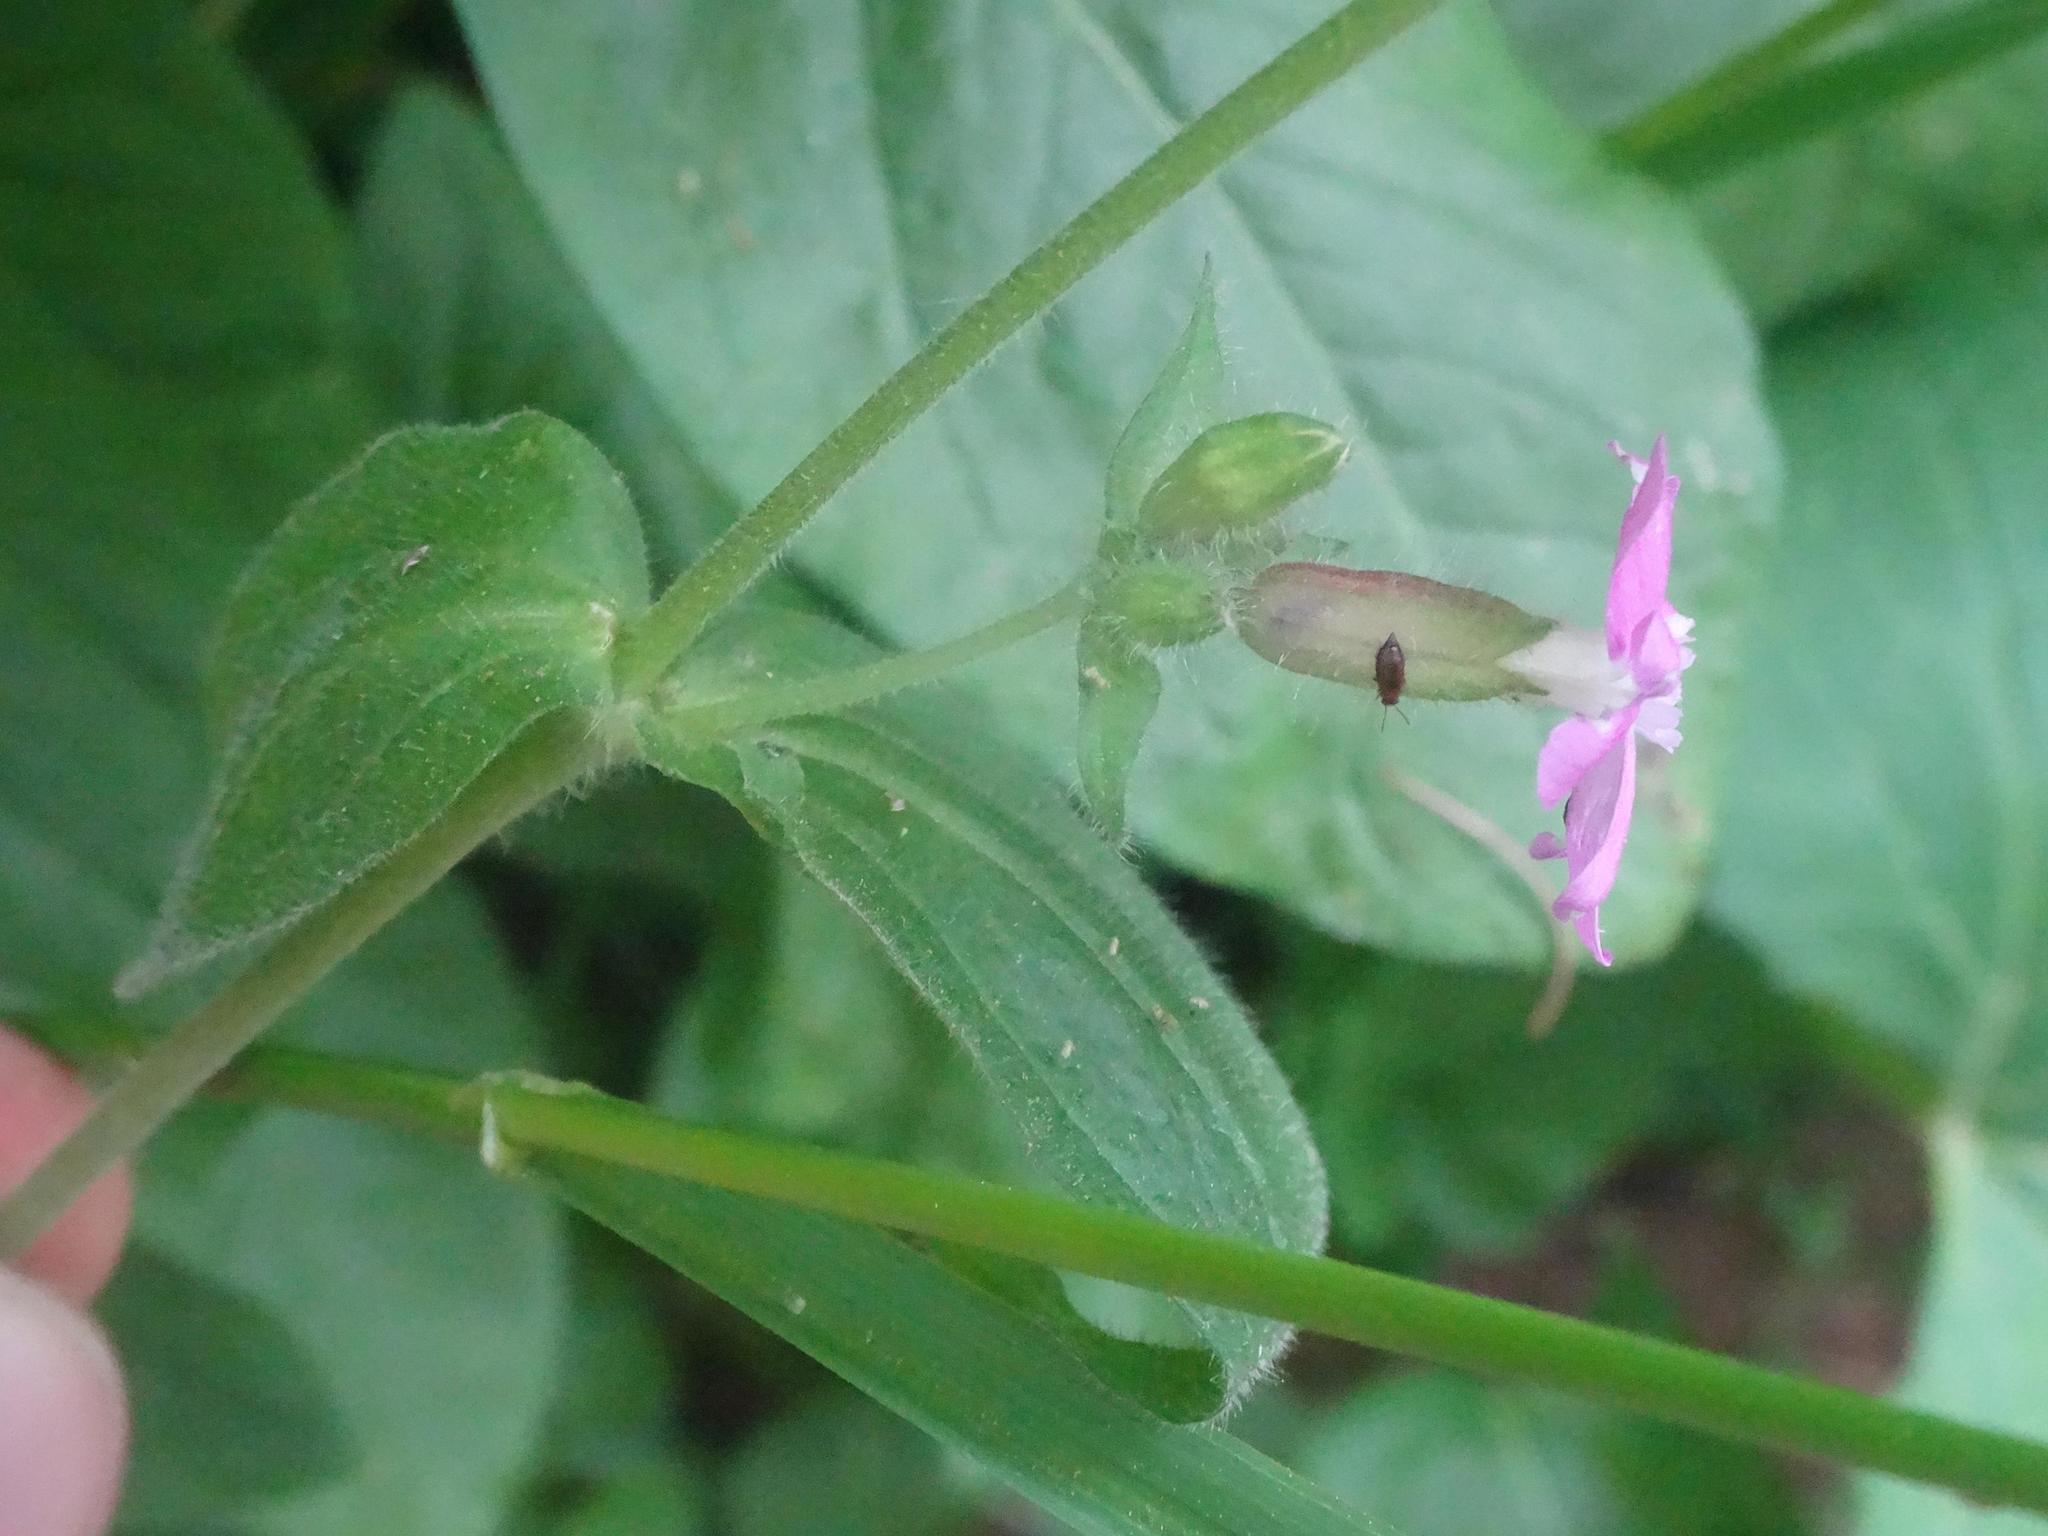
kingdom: Plantae
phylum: Tracheophyta
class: Magnoliopsida
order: Caryophyllales
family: Caryophyllaceae
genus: Silene
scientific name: Silene dioica
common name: Red campion
